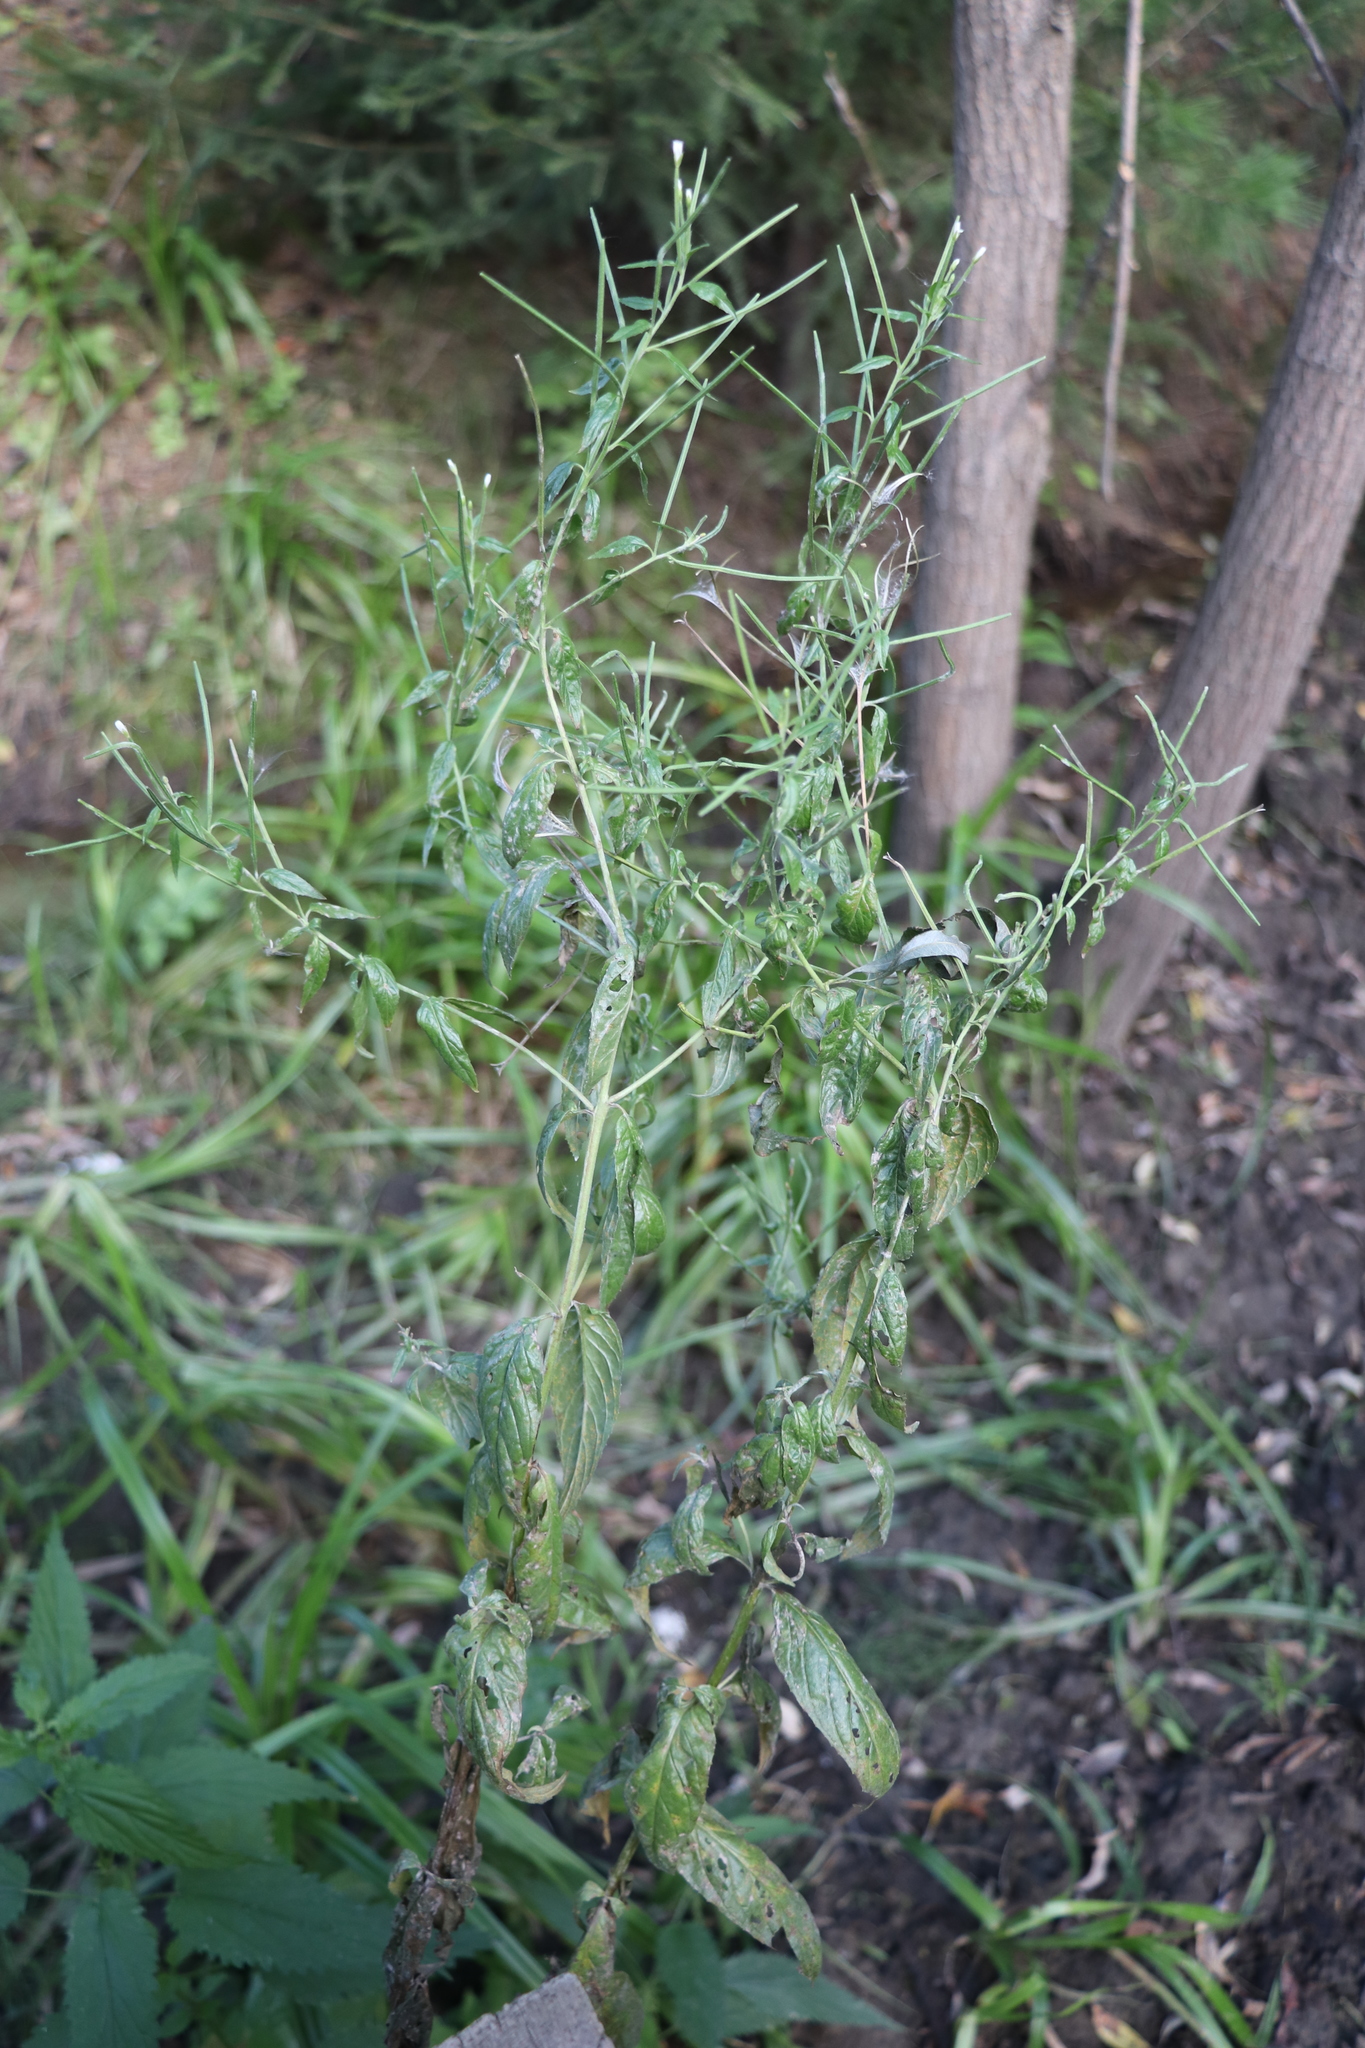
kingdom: Plantae
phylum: Tracheophyta
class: Magnoliopsida
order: Myrtales
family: Onagraceae
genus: Epilobium
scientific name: Epilobium pseudorubescens
